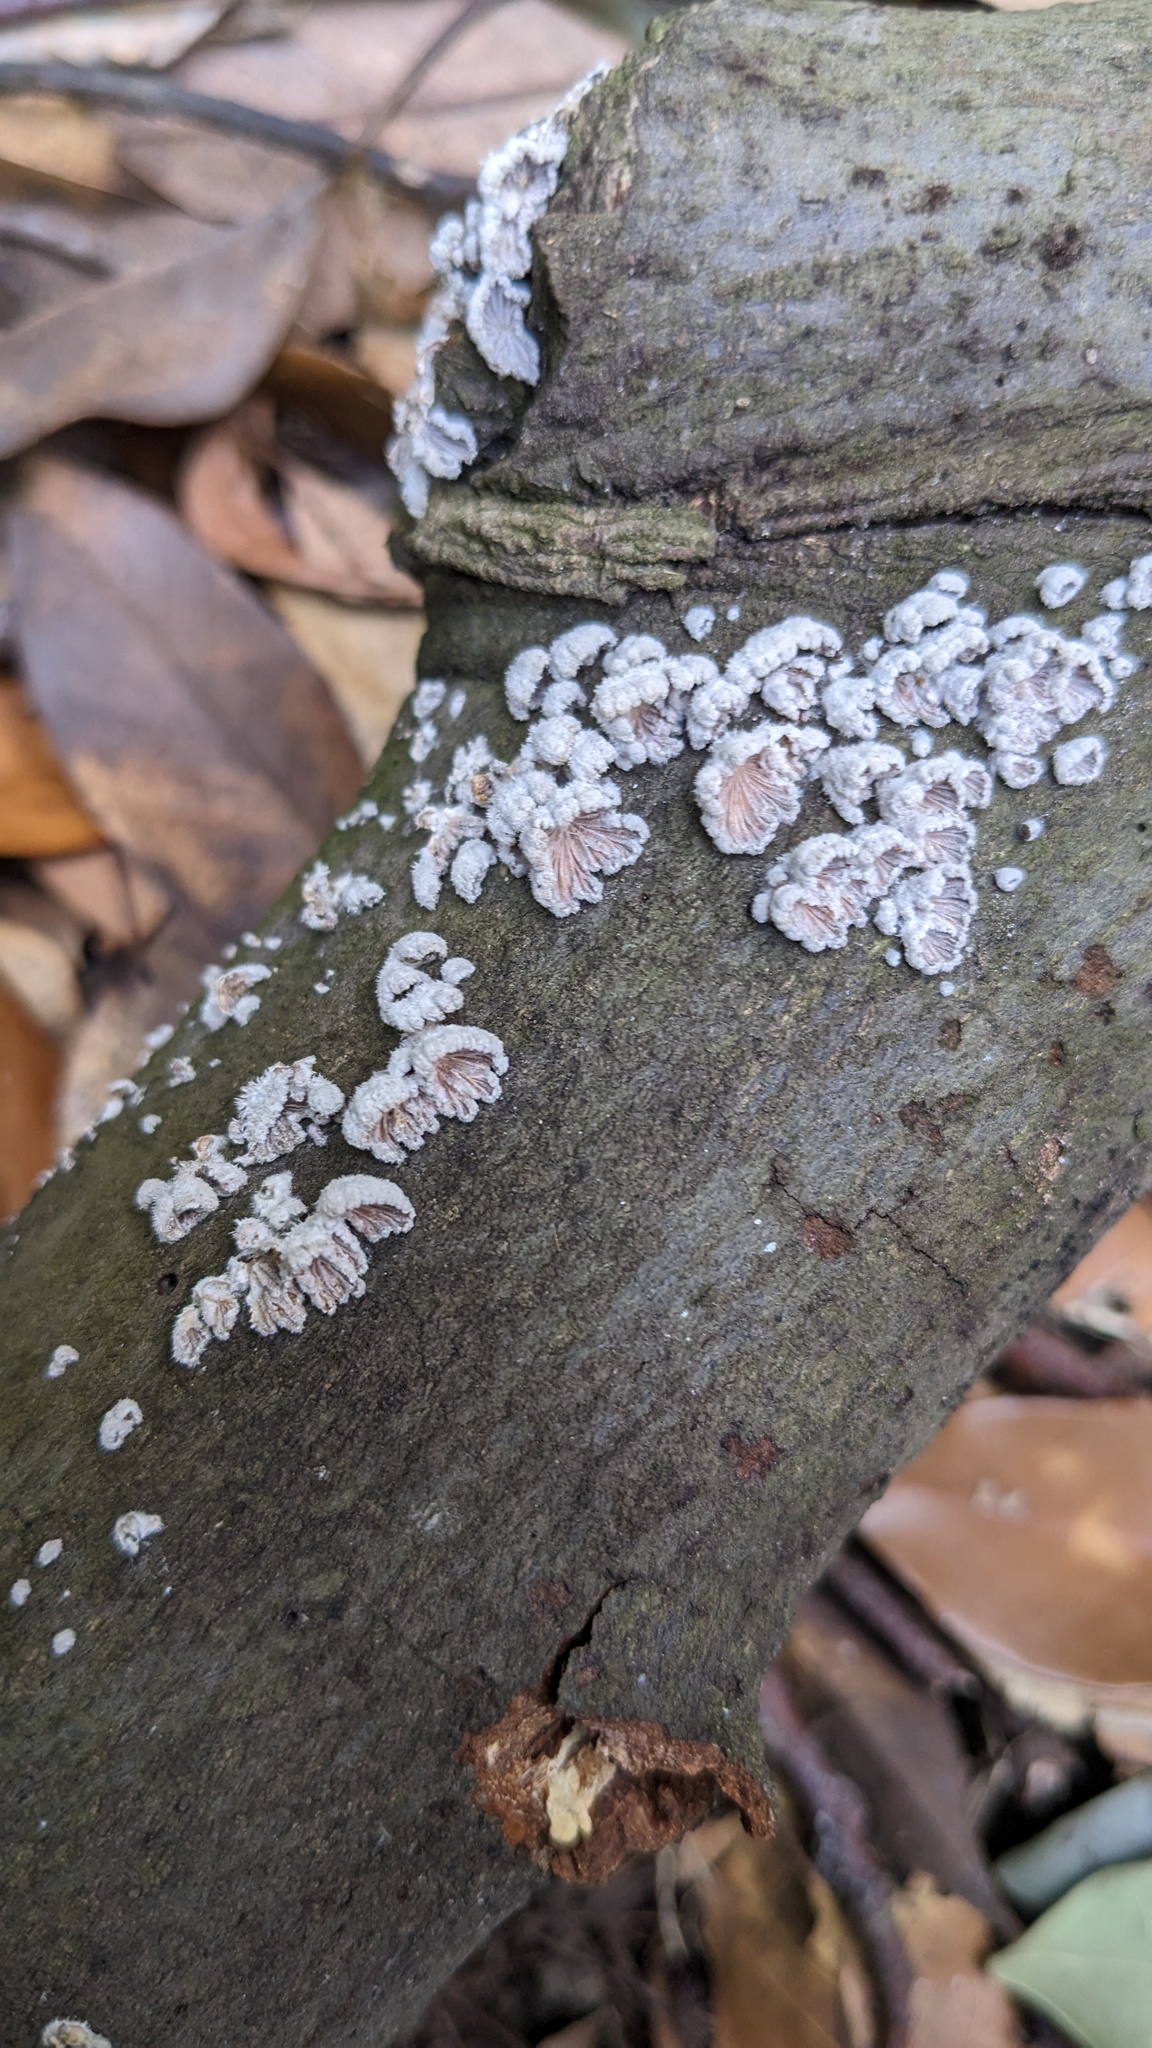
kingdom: Fungi
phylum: Basidiomycota
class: Agaricomycetes
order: Agaricales
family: Schizophyllaceae
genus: Schizophyllum
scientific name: Schizophyllum commune
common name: Common porecrust
